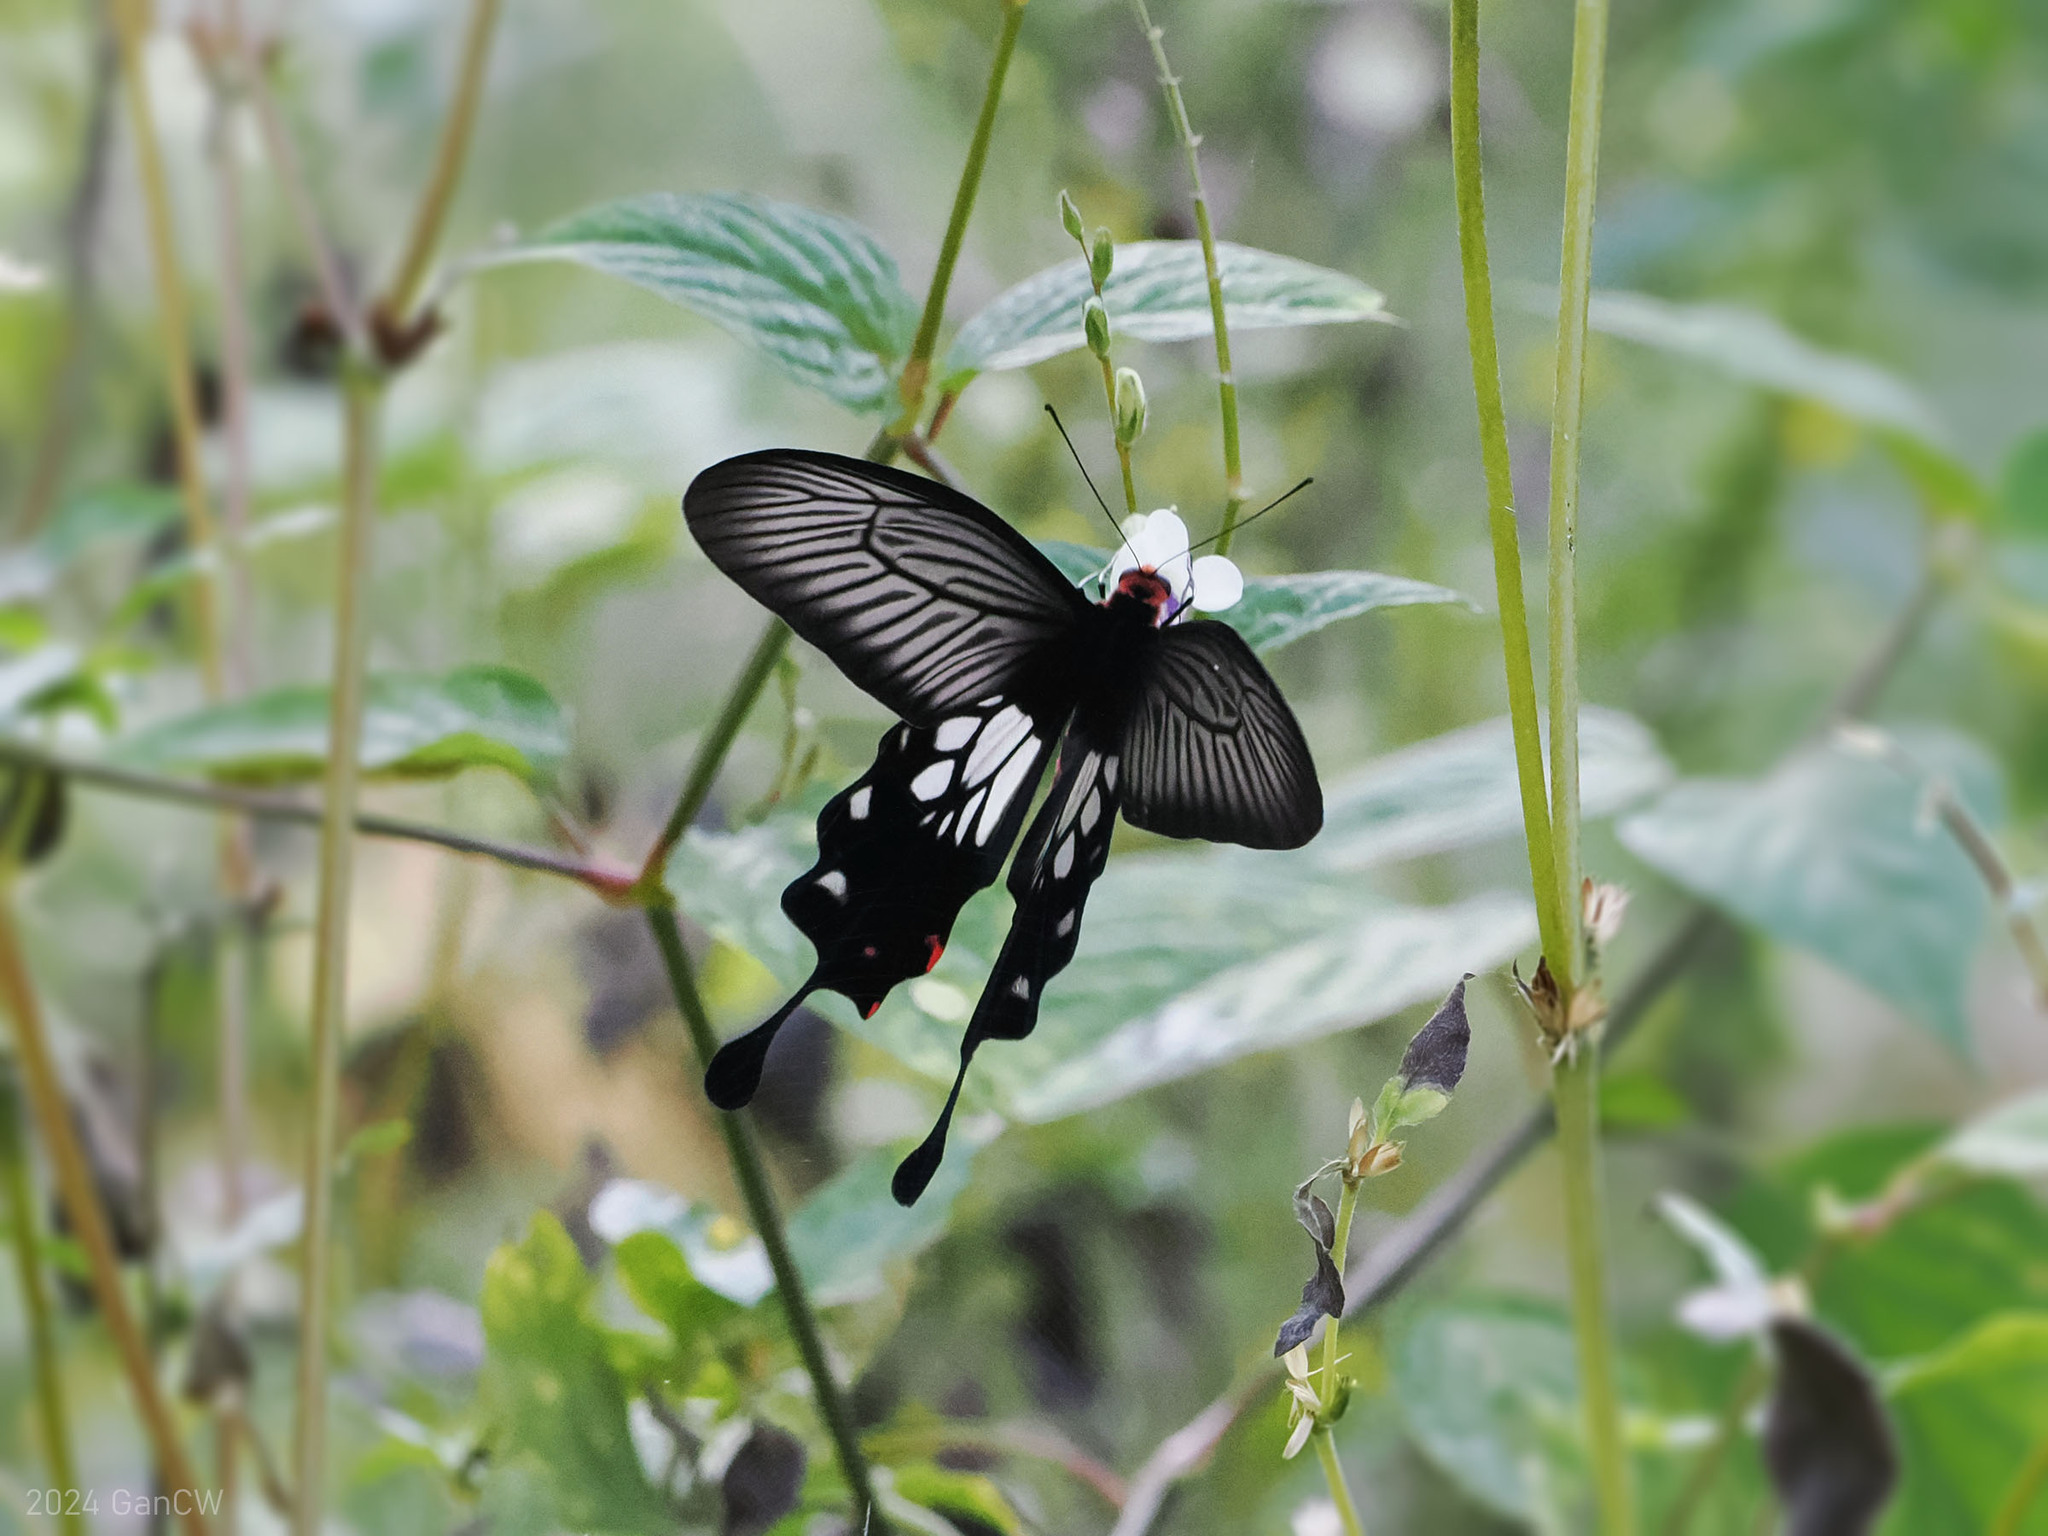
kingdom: Animalia
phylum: Arthropoda
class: Insecta
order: Lepidoptera
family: Papilionidae
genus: Losaria
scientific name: Losaria
